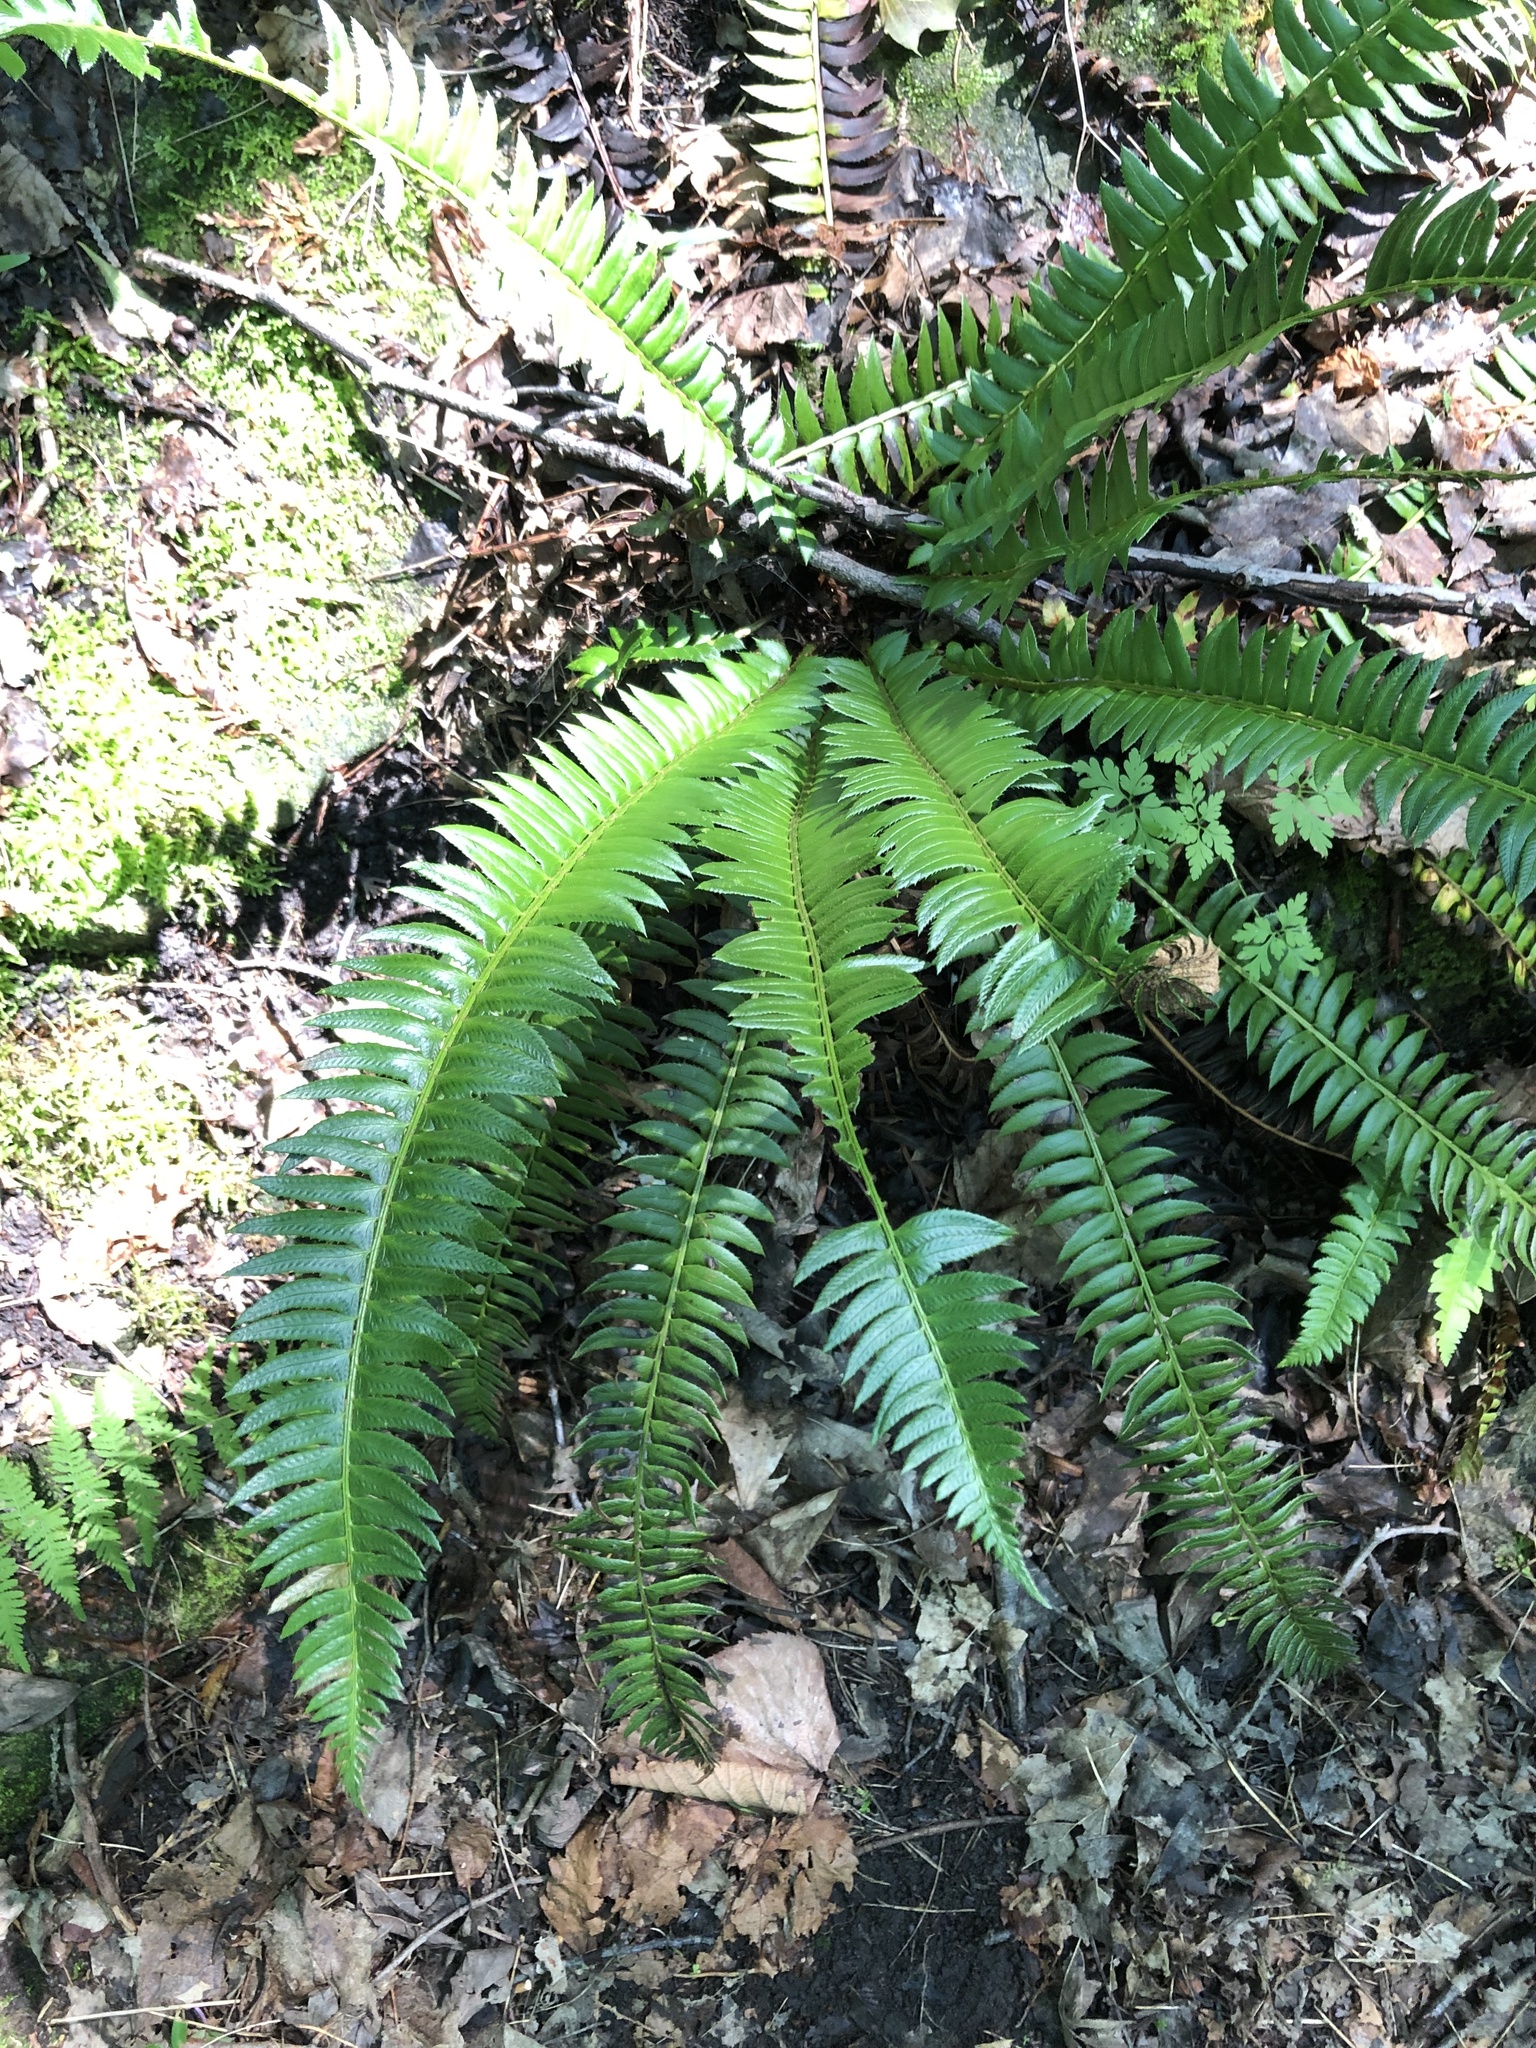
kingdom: Plantae
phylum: Tracheophyta
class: Polypodiopsida
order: Polypodiales
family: Dryopteridaceae
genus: Polystichum
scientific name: Polystichum lonchitis
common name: Holly fern
